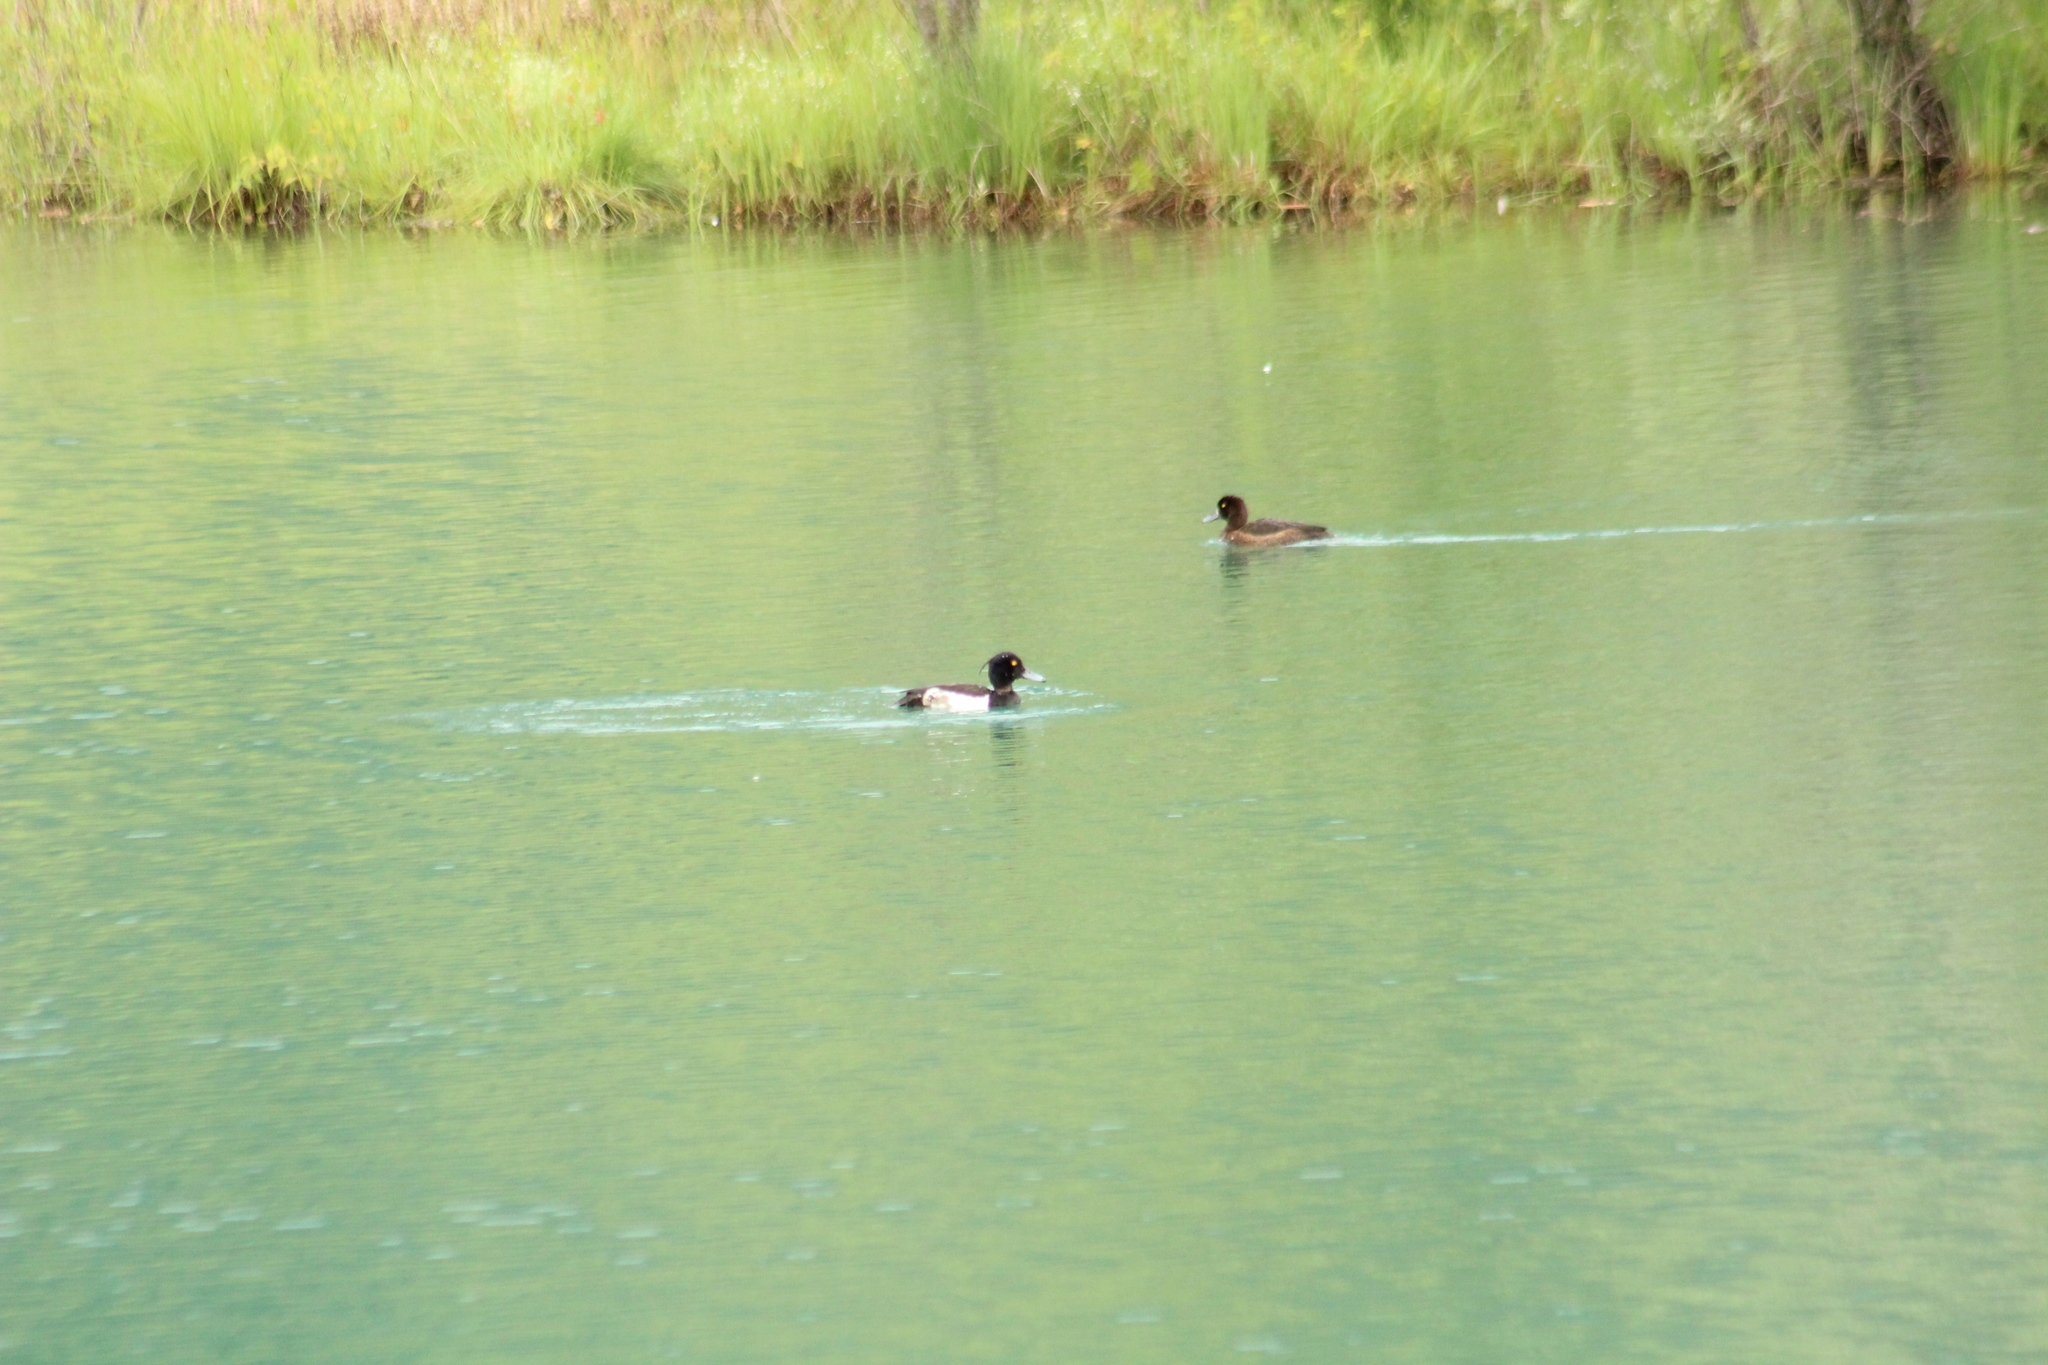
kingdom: Animalia
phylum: Chordata
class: Aves
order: Anseriformes
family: Anatidae
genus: Aythya
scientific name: Aythya fuligula
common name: Tufted duck
